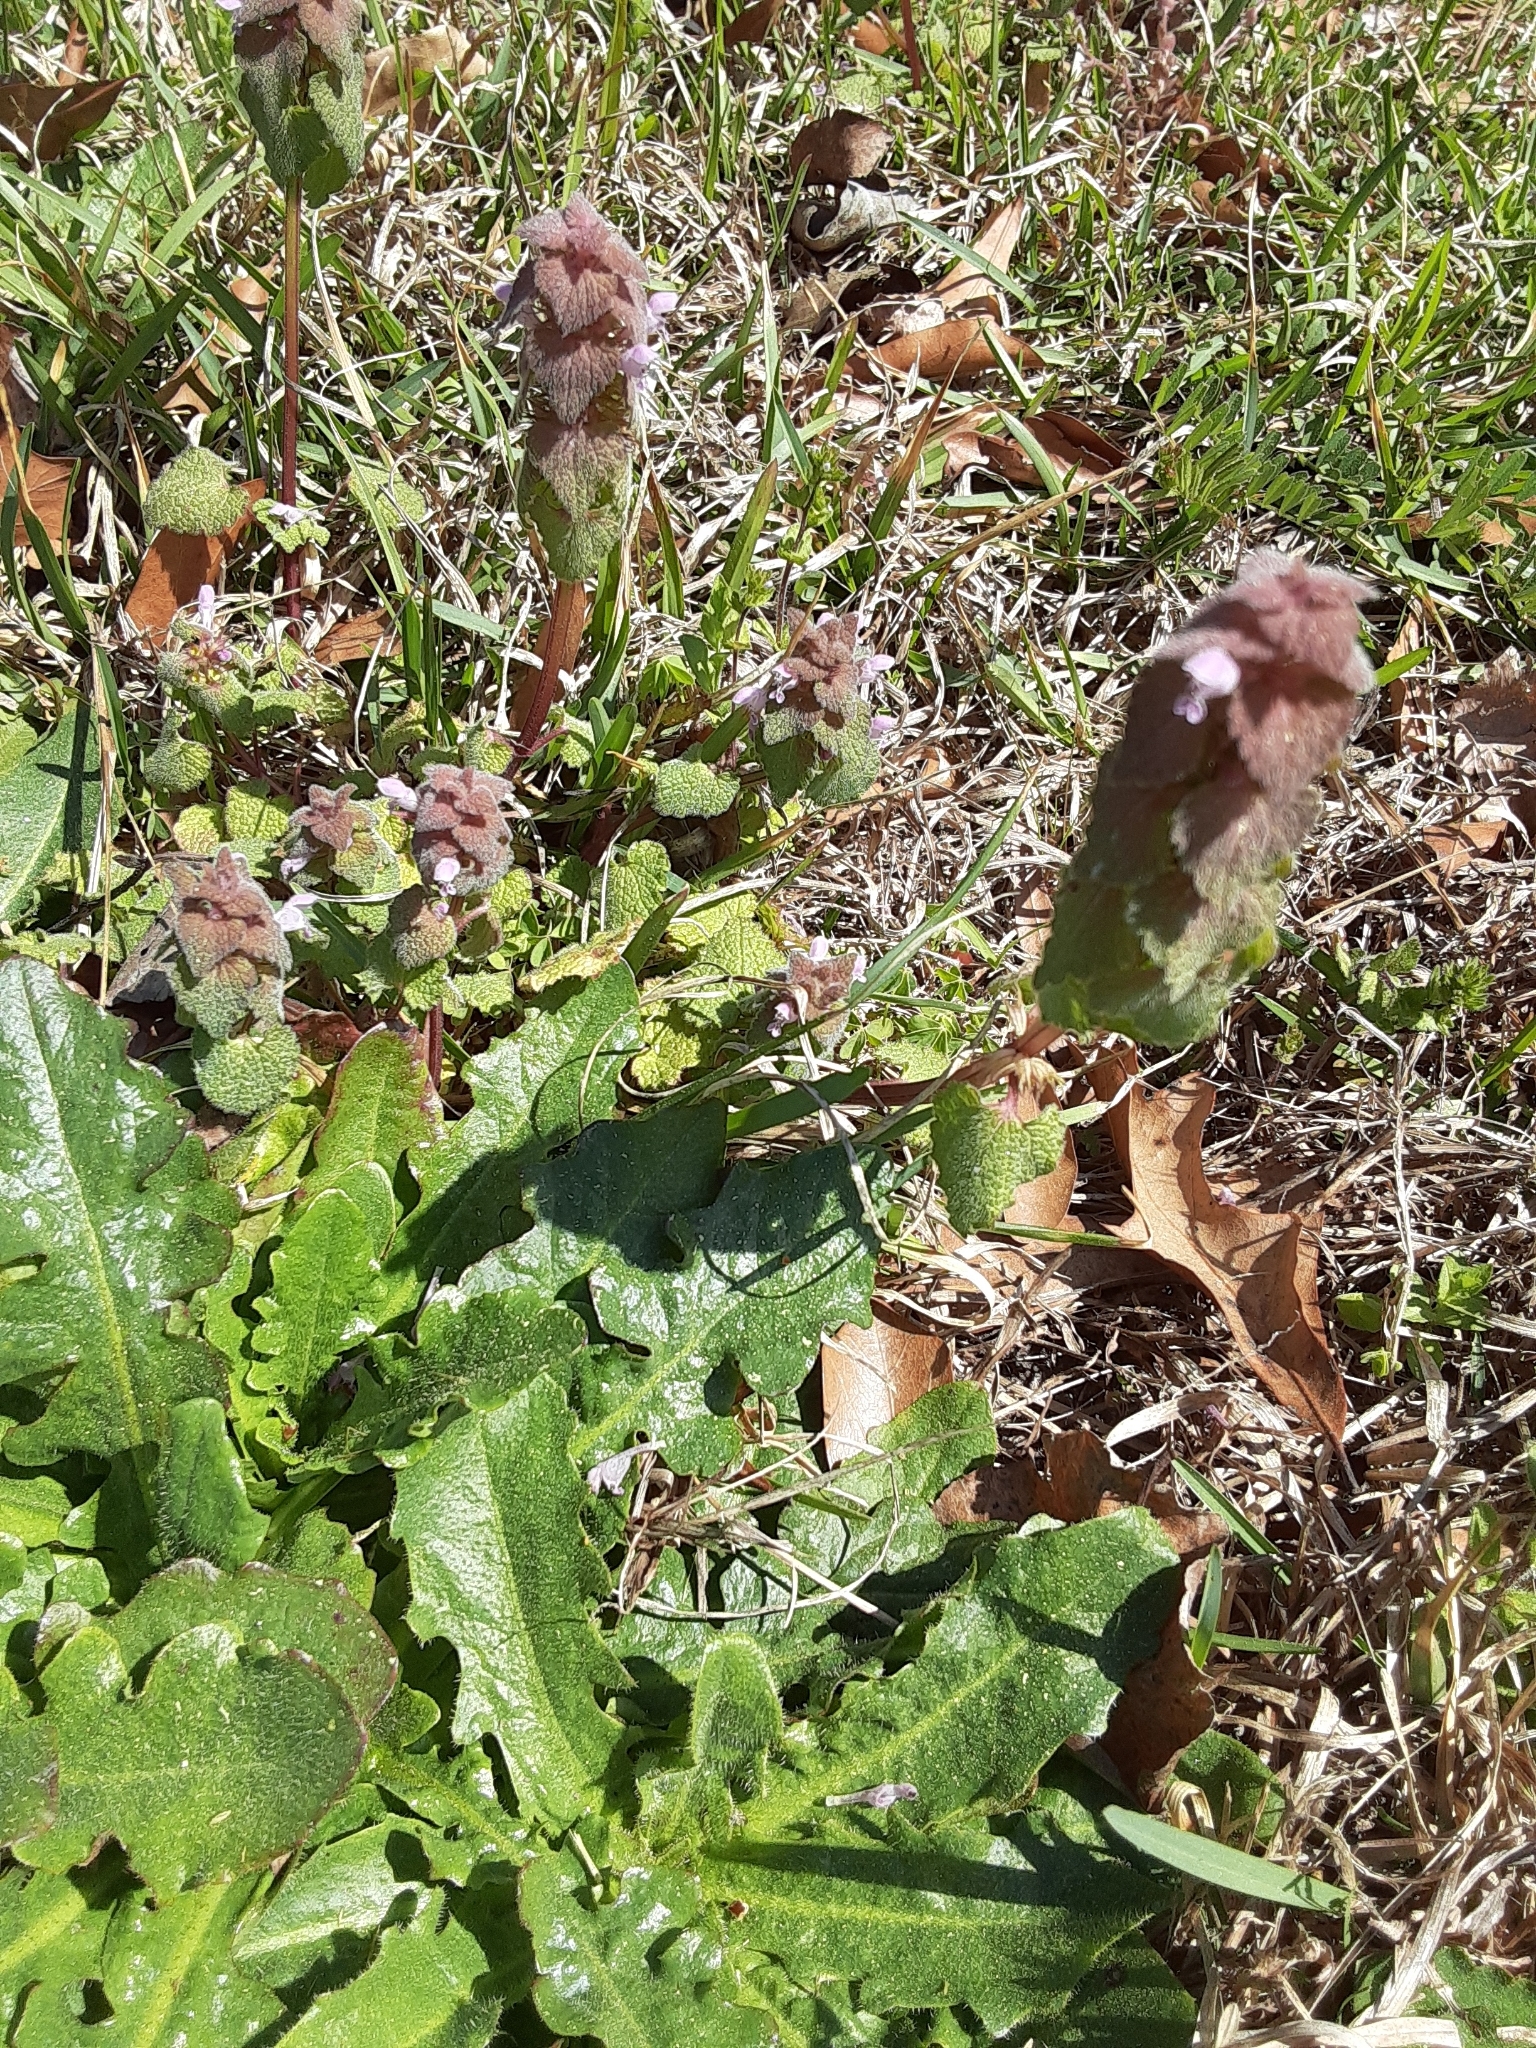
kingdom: Plantae
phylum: Tracheophyta
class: Magnoliopsida
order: Lamiales
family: Lamiaceae
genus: Lamium
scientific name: Lamium purpureum
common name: Red dead-nettle
